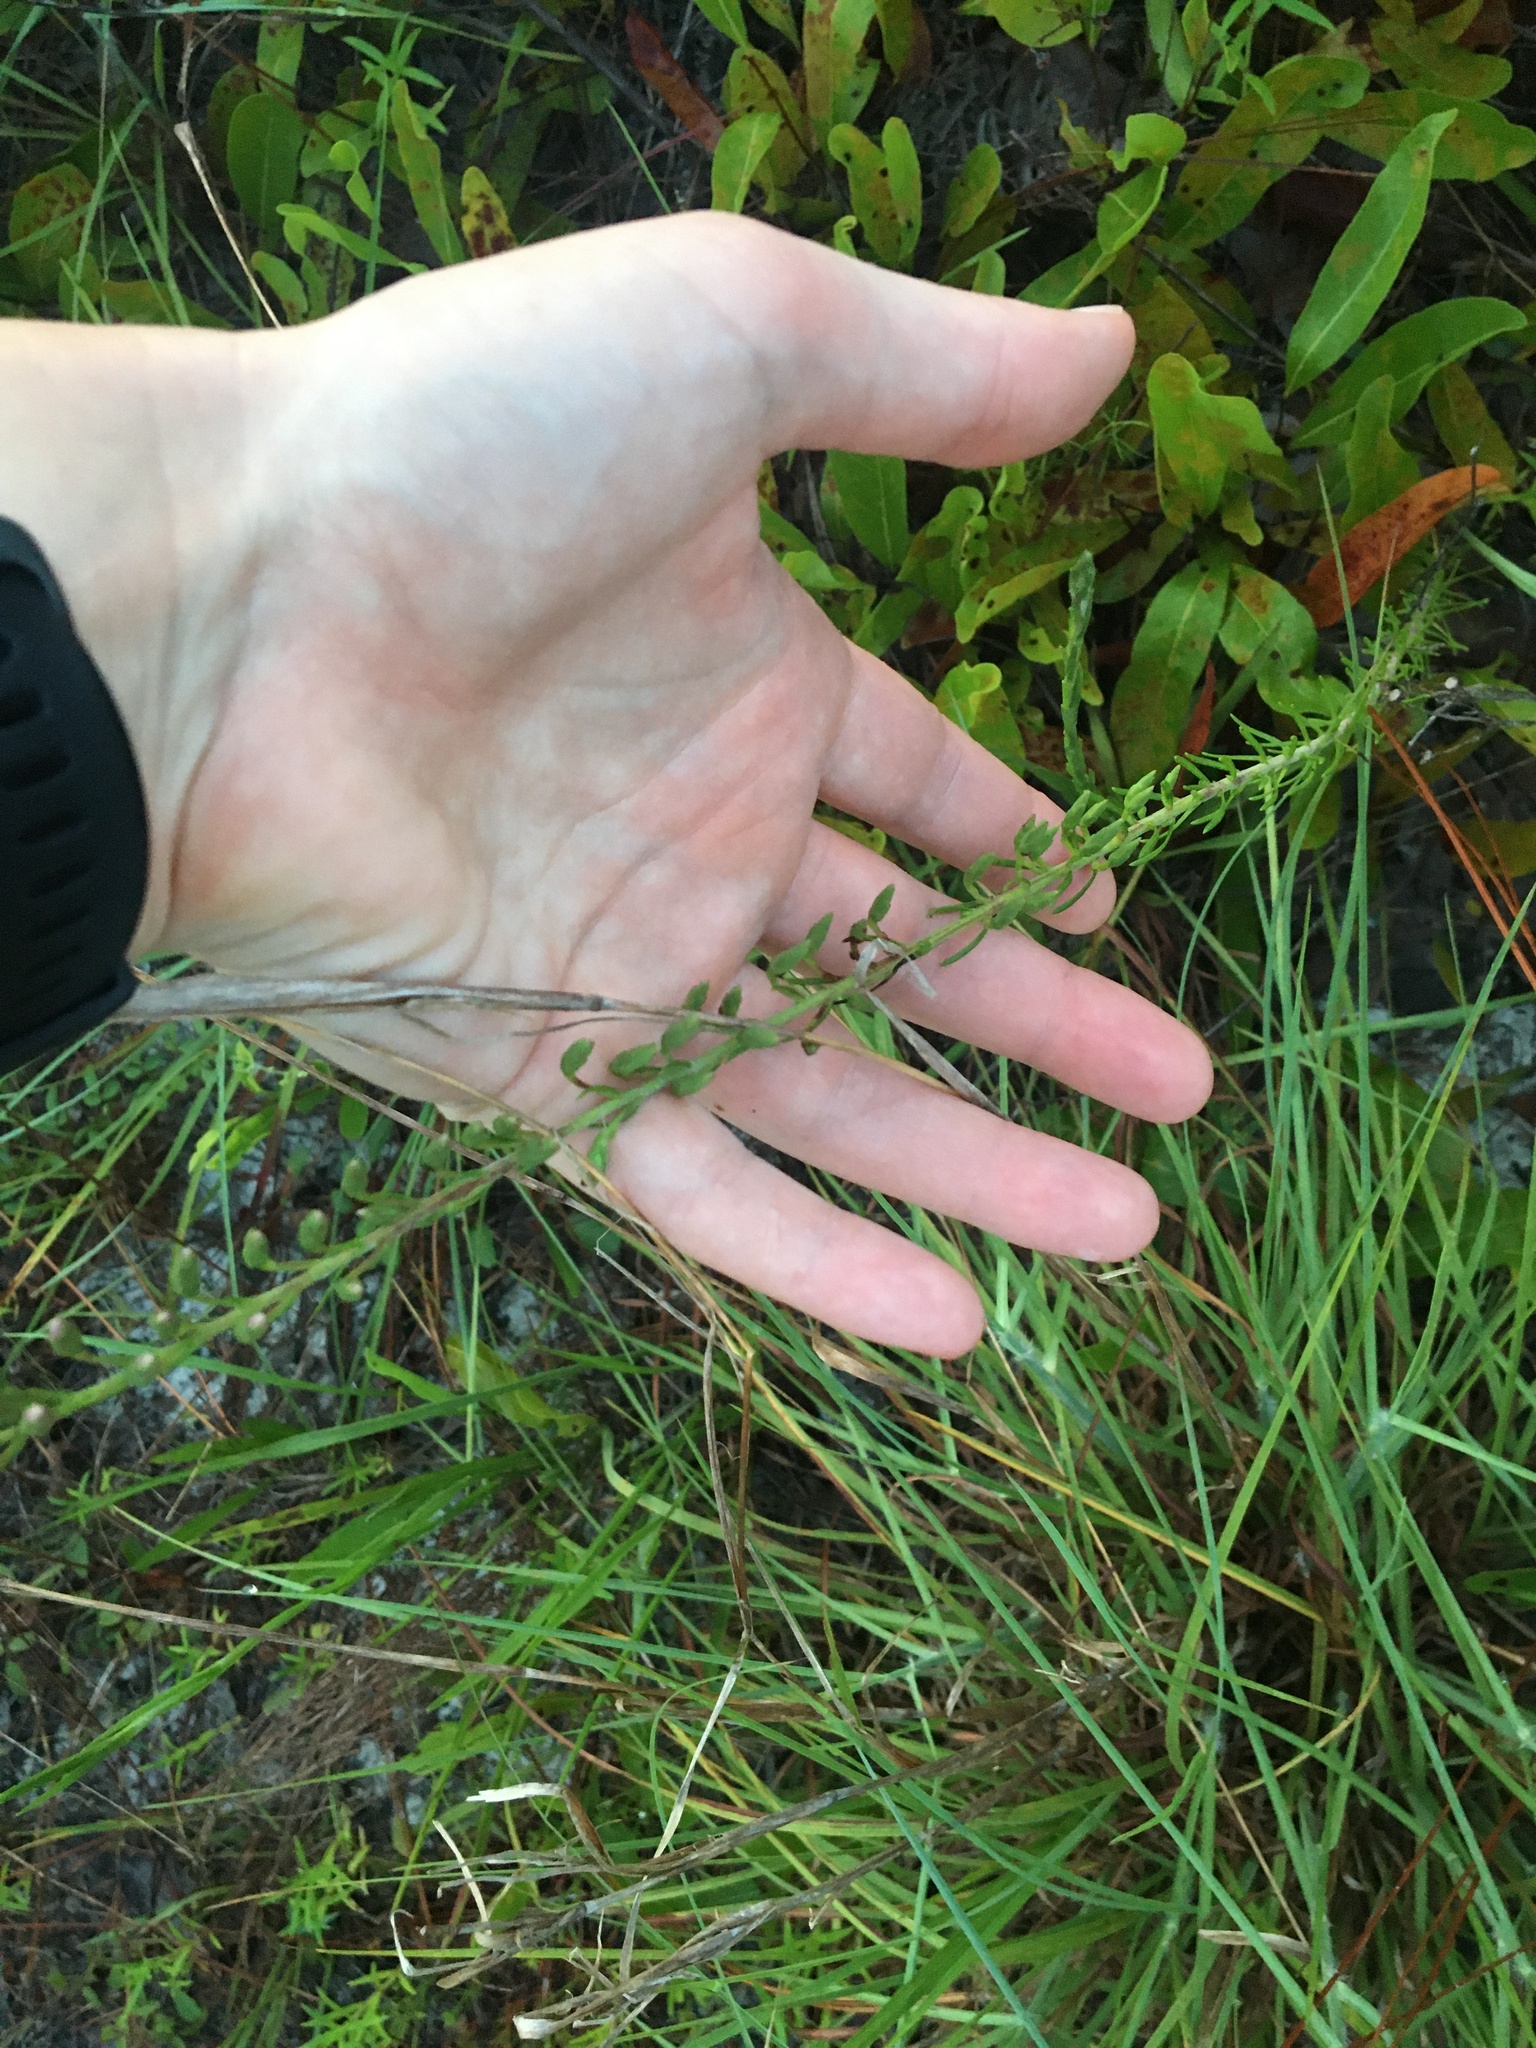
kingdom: Plantae
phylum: Tracheophyta
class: Magnoliopsida
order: Asterales
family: Asteraceae
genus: Liatris
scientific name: Liatris pauciflora
